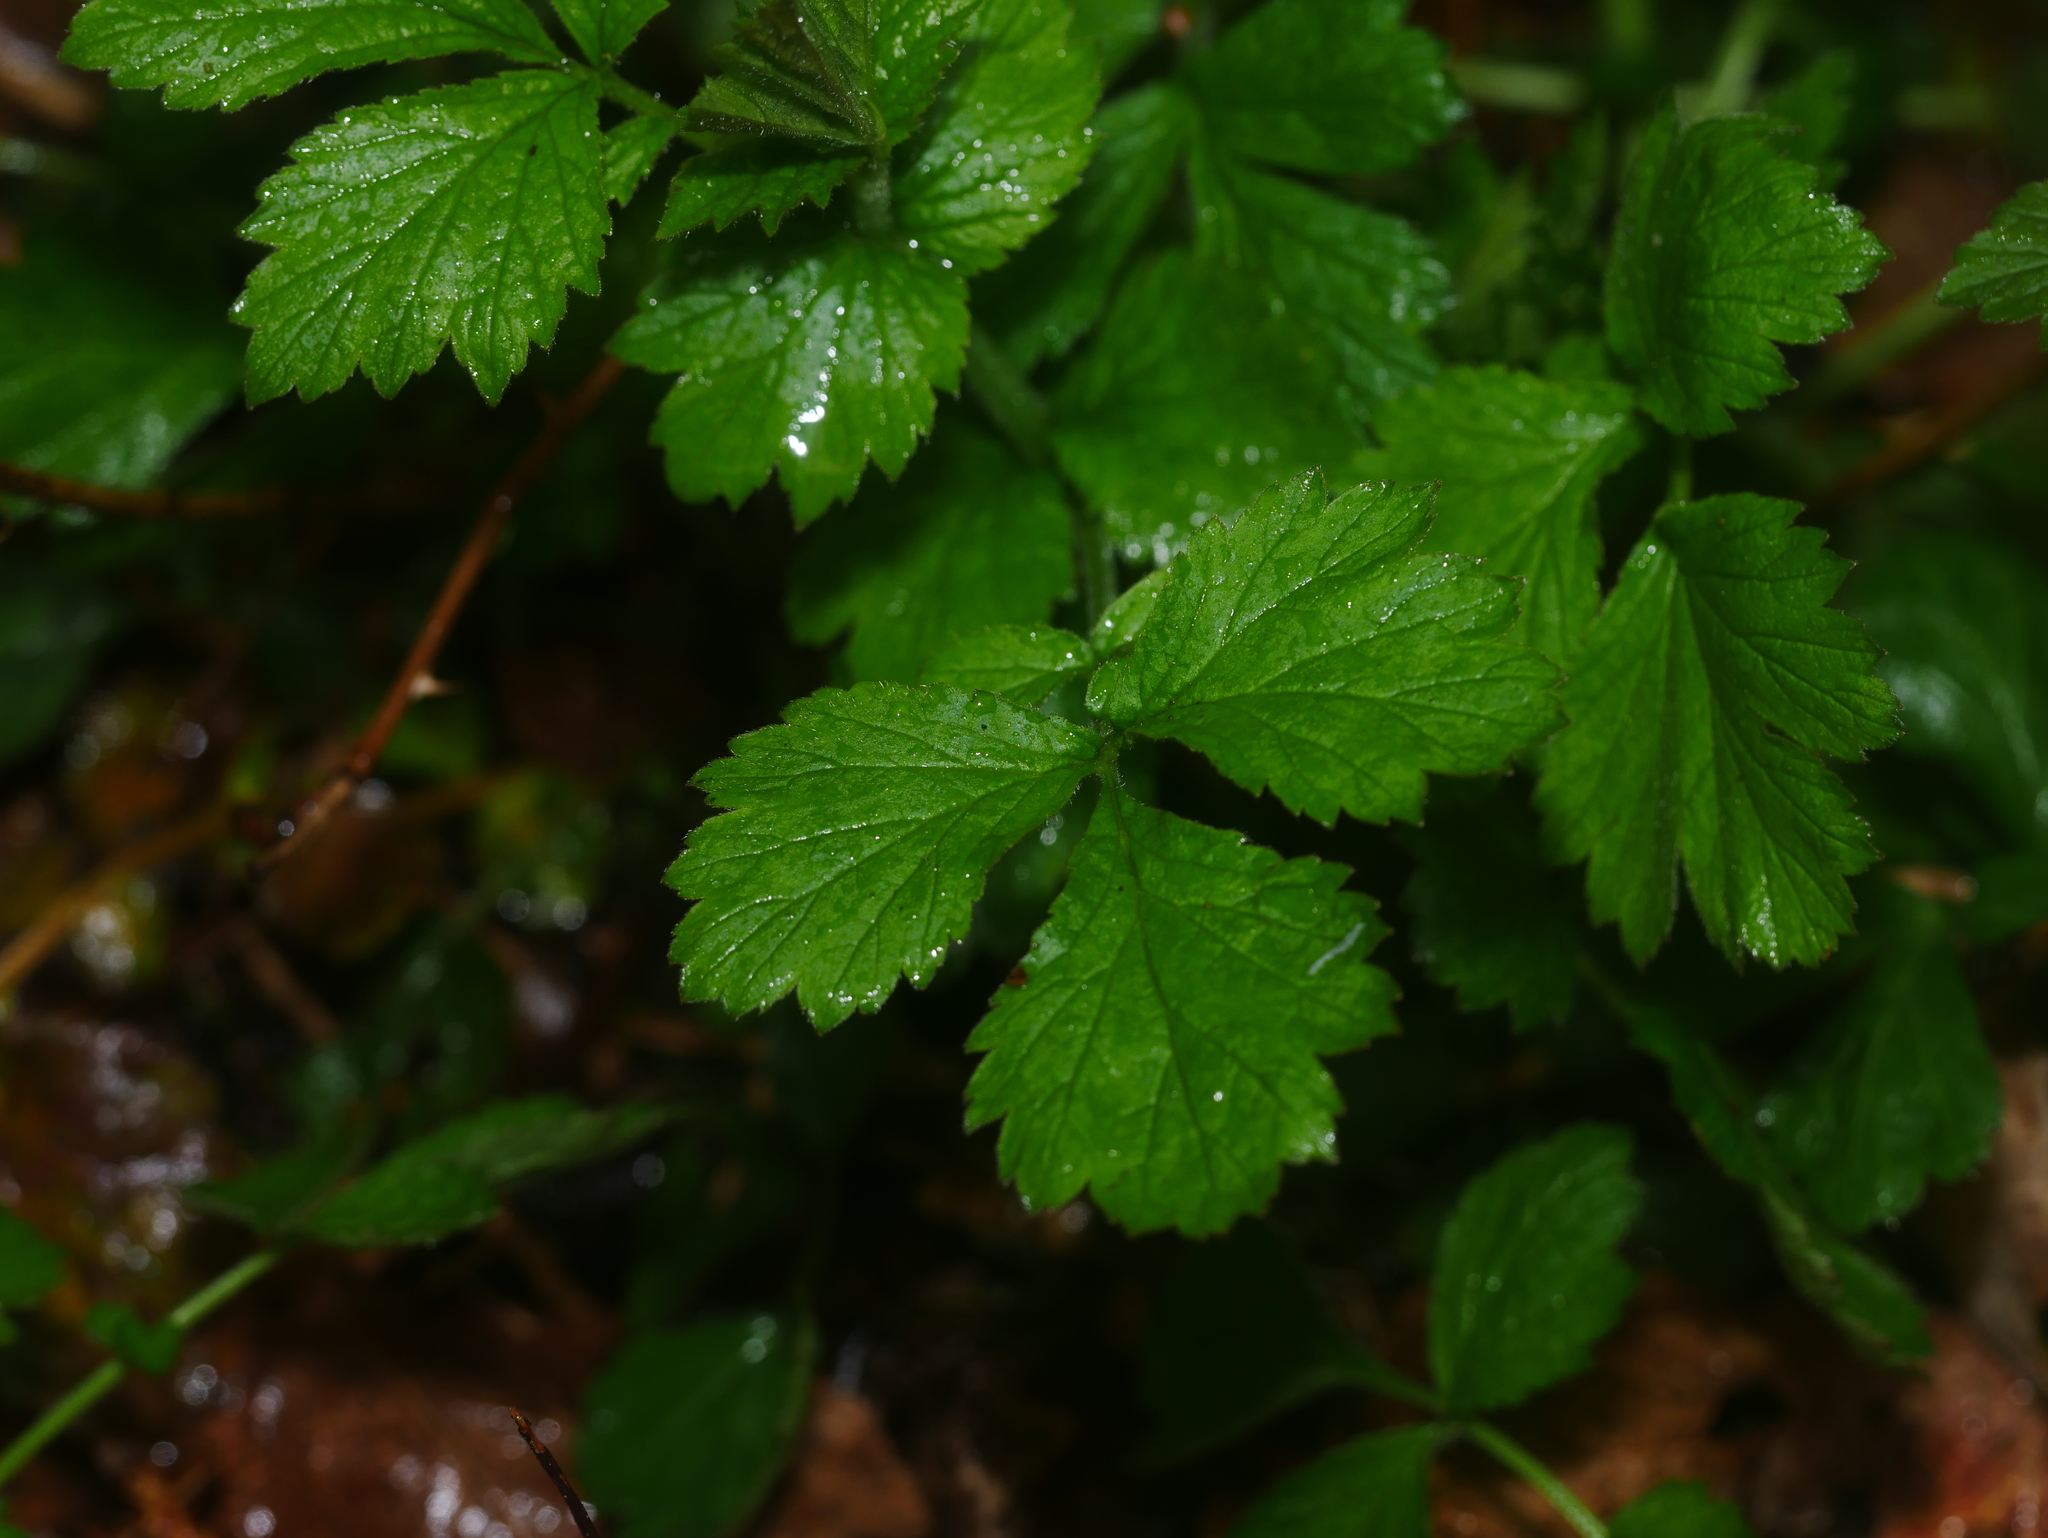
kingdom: Plantae
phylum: Tracheophyta
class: Magnoliopsida
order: Rosales
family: Rosaceae
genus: Geum
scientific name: Geum urbanum
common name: Wood avens
